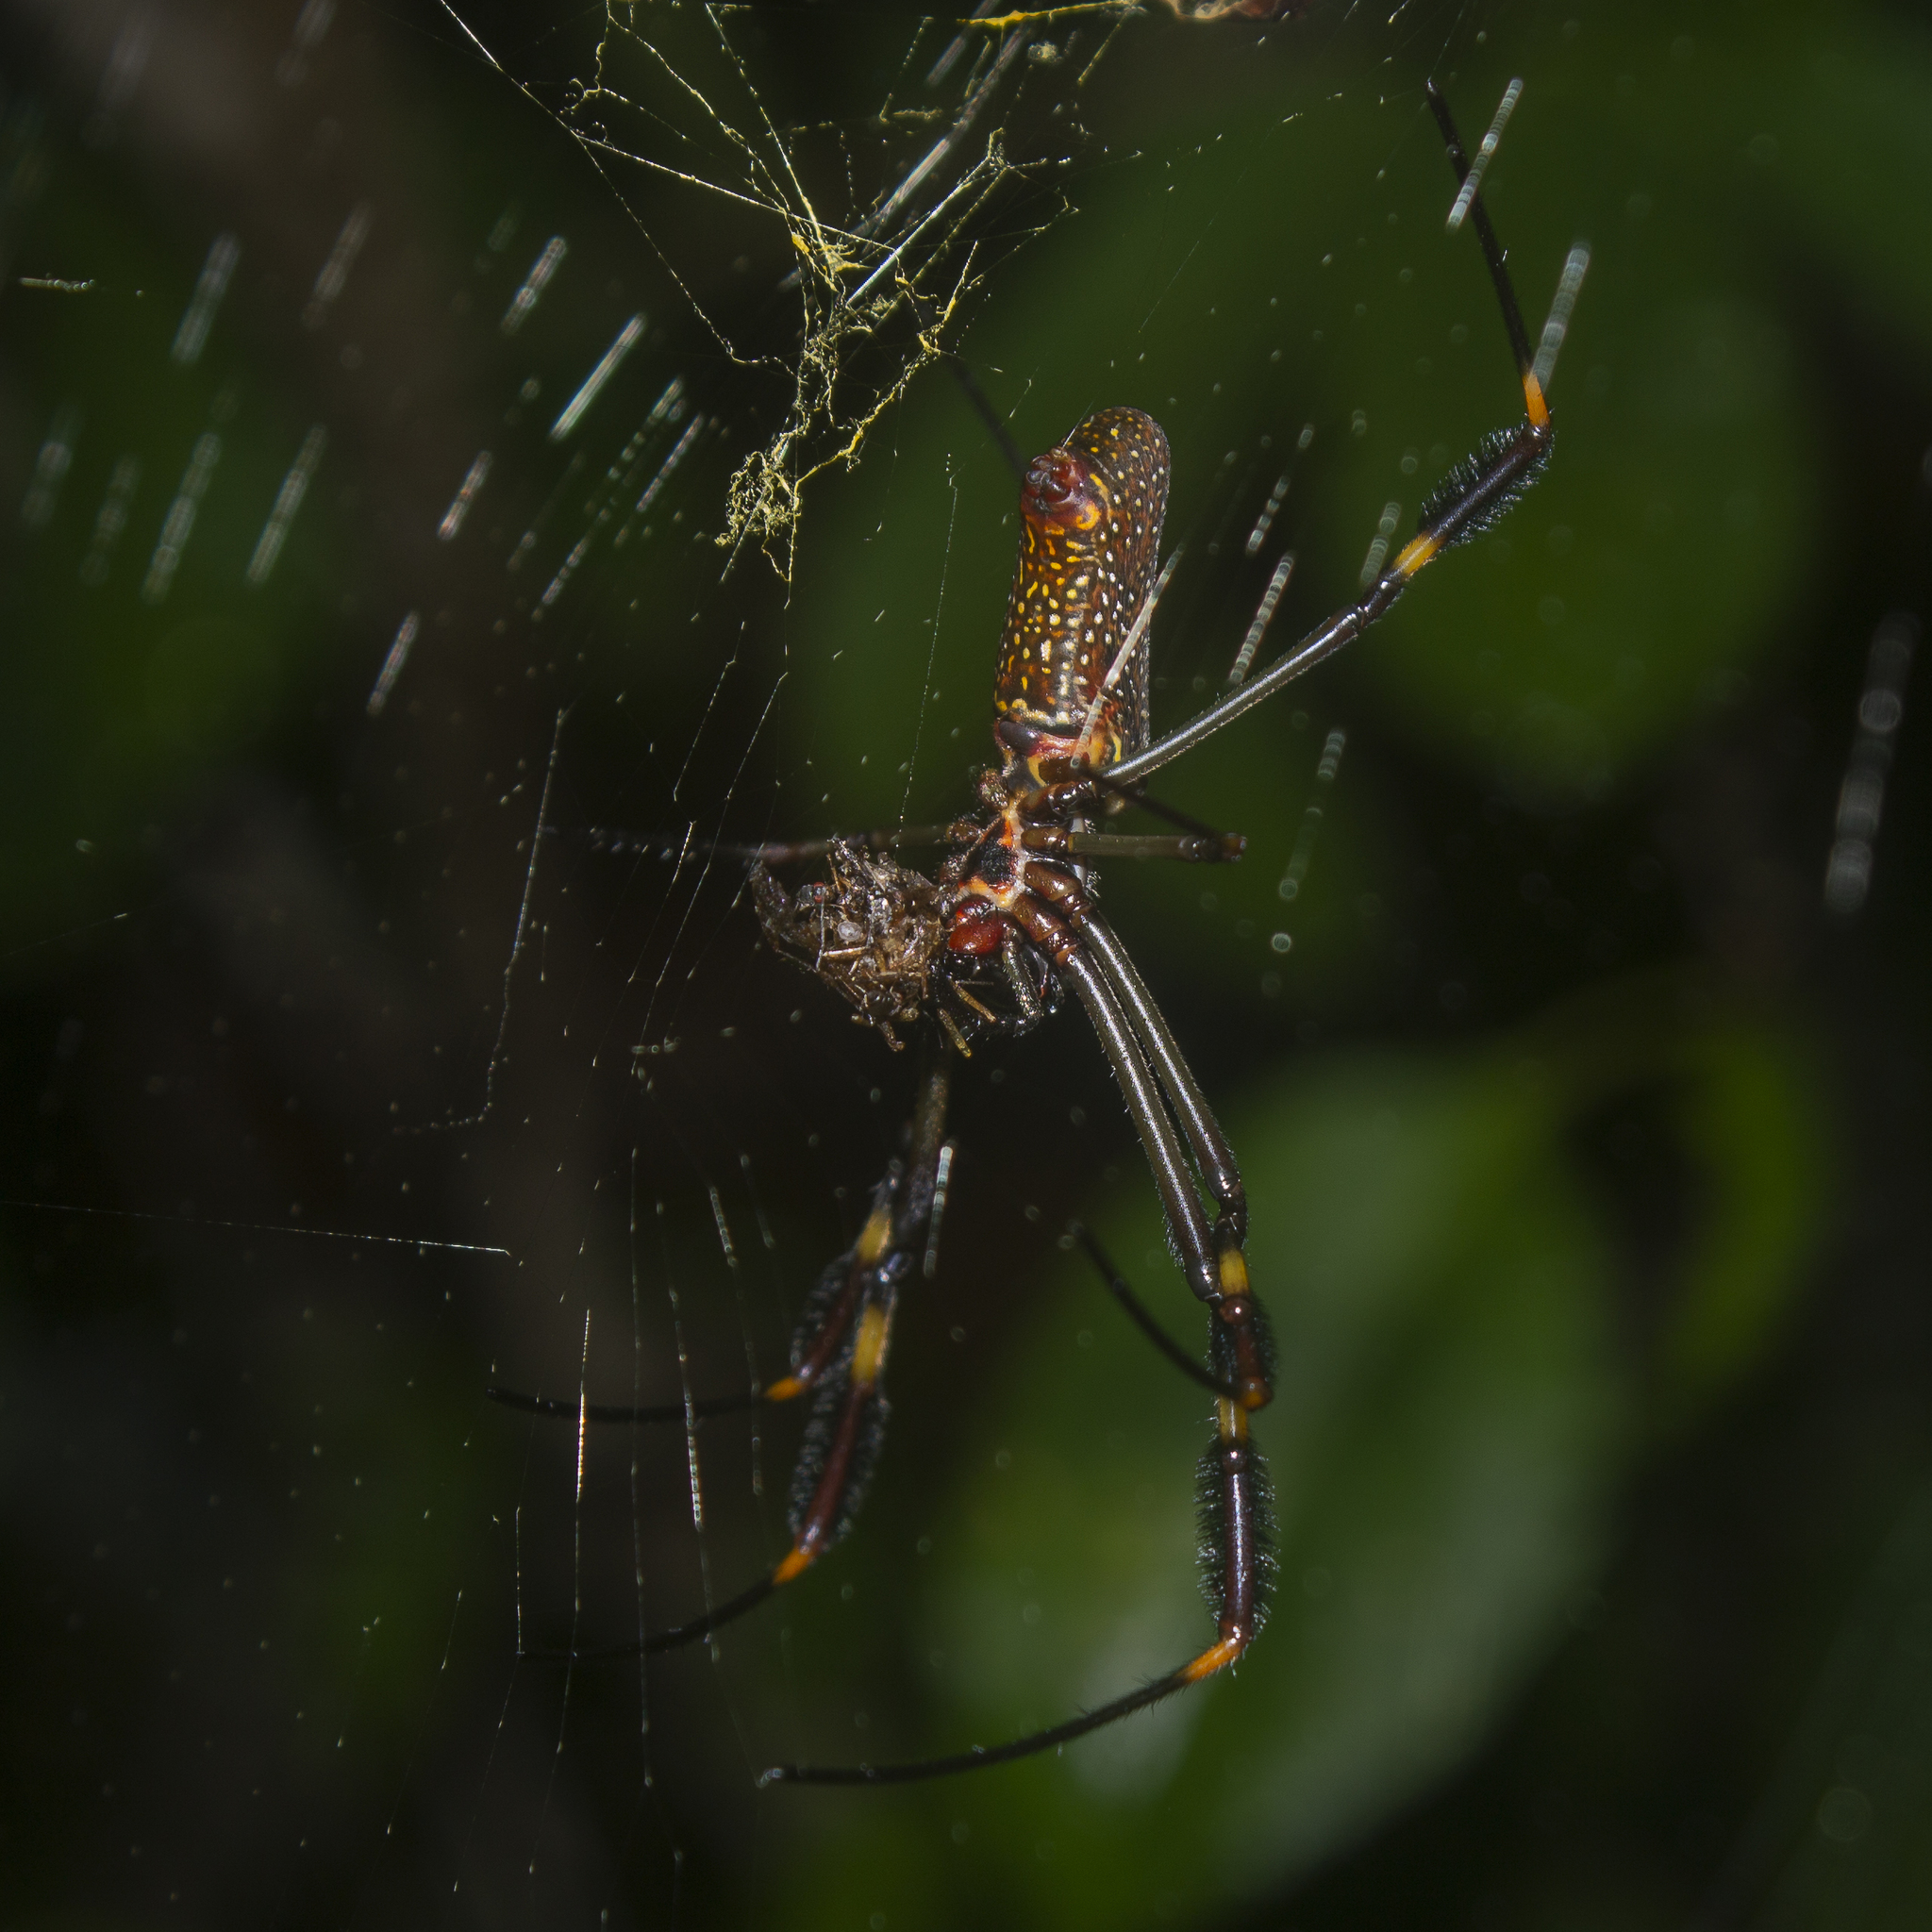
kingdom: Animalia
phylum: Arthropoda
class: Arachnida
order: Araneae
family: Araneidae
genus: Trichonephila
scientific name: Trichonephila clavipes
